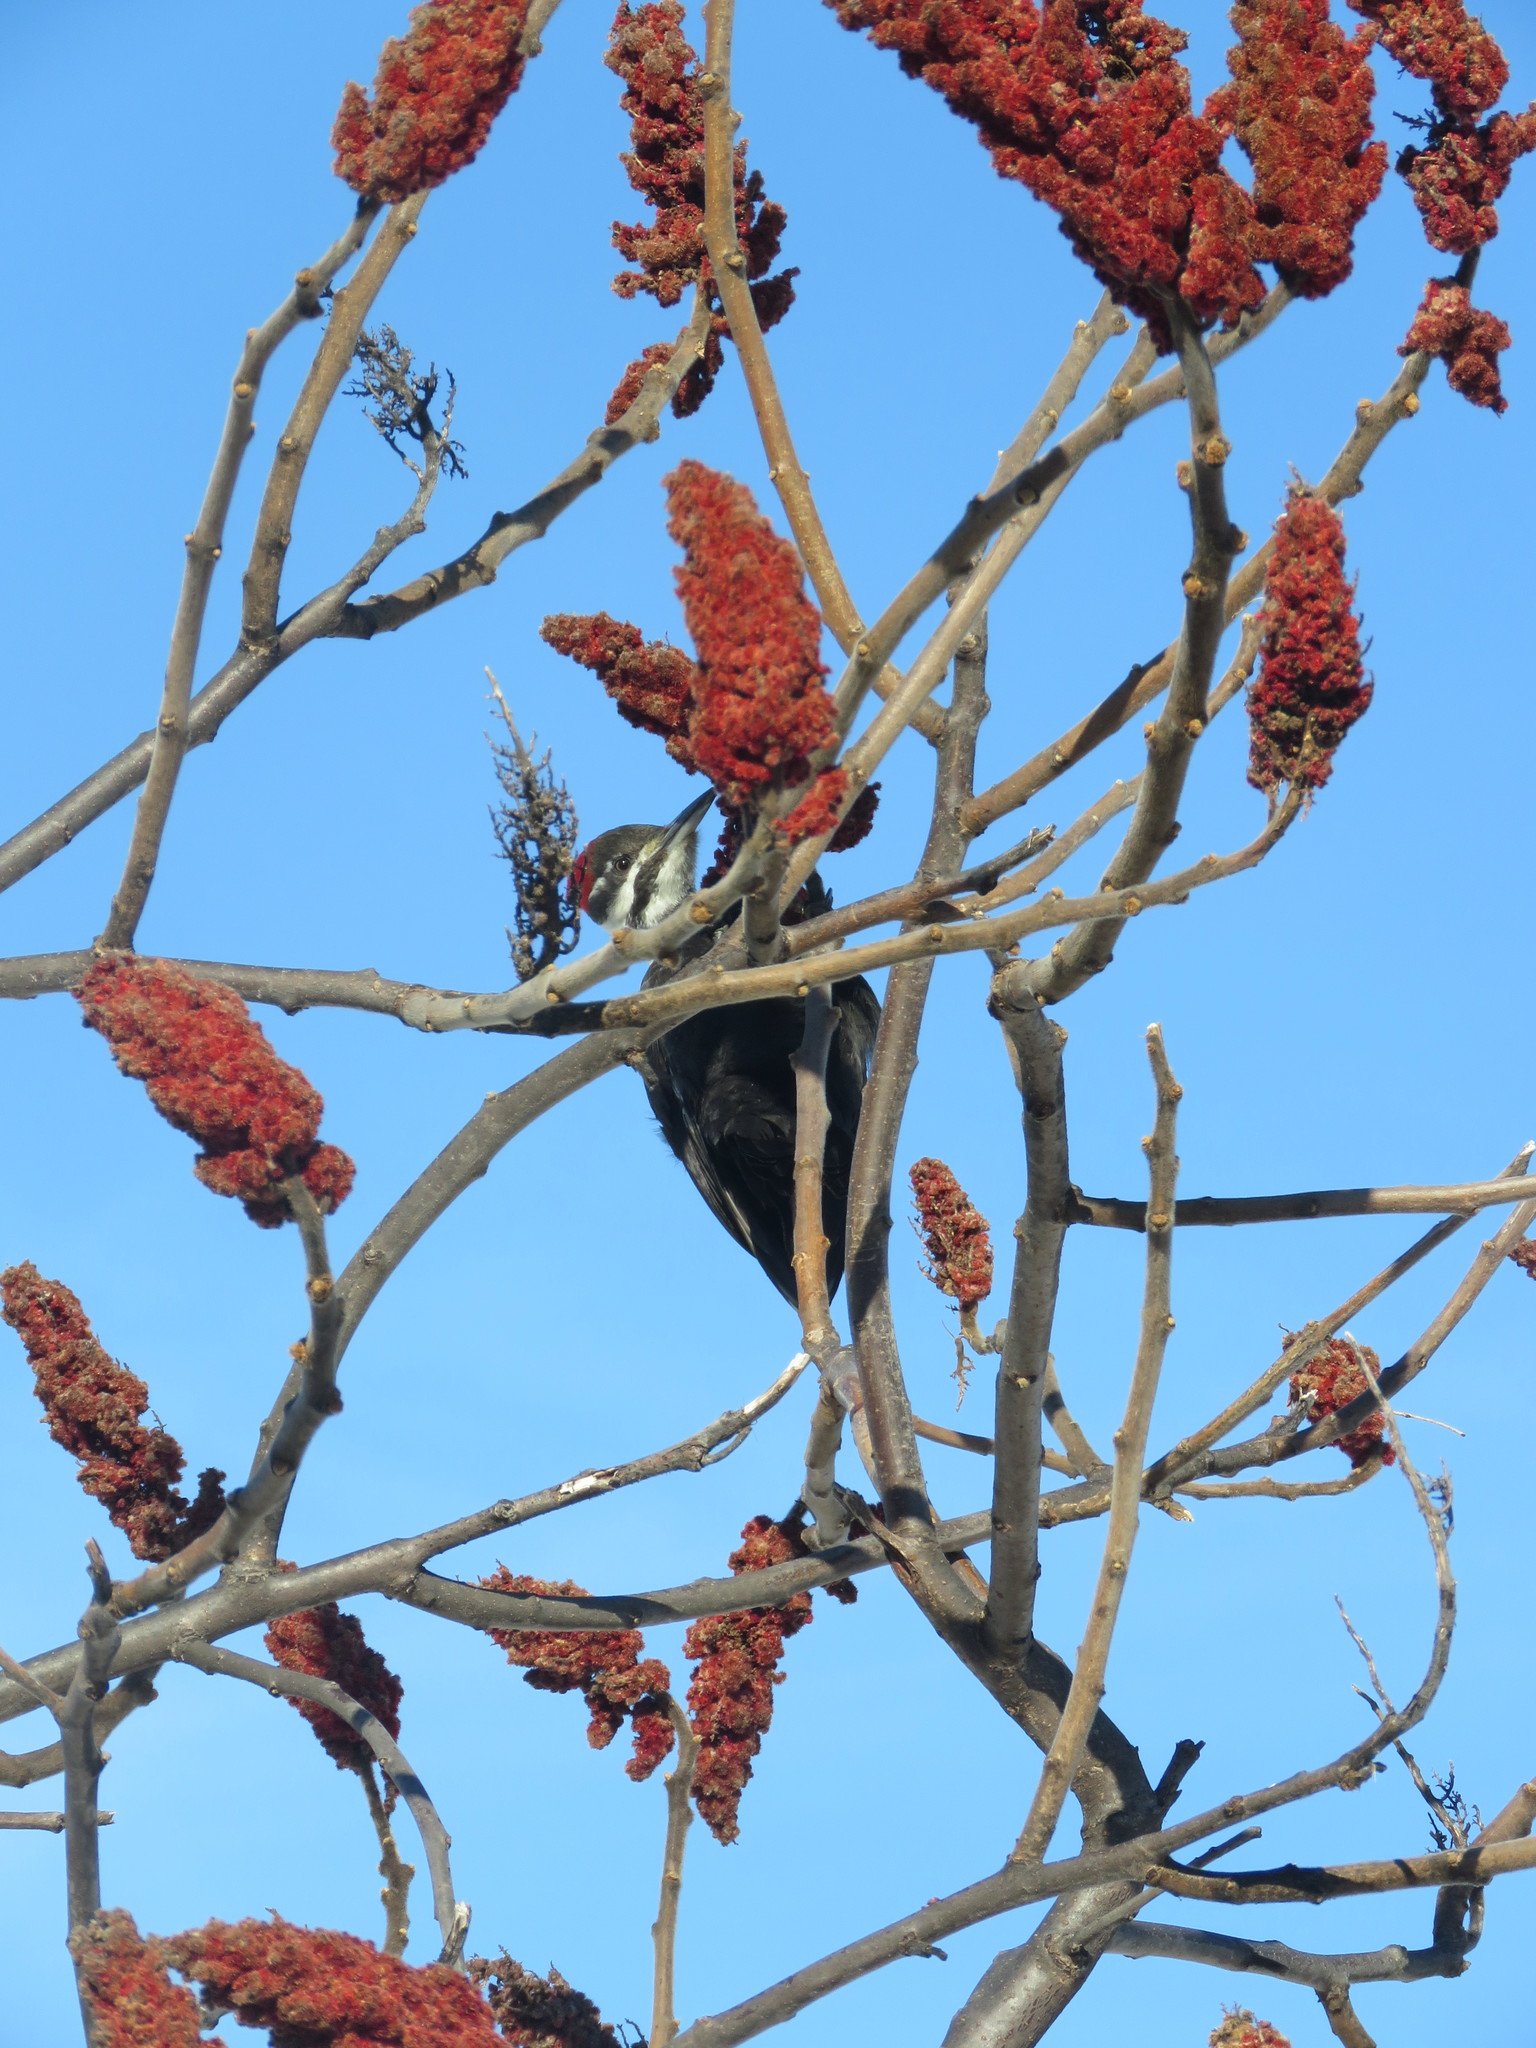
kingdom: Animalia
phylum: Chordata
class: Aves
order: Piciformes
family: Picidae
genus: Dryocopus
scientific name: Dryocopus pileatus
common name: Pileated woodpecker
